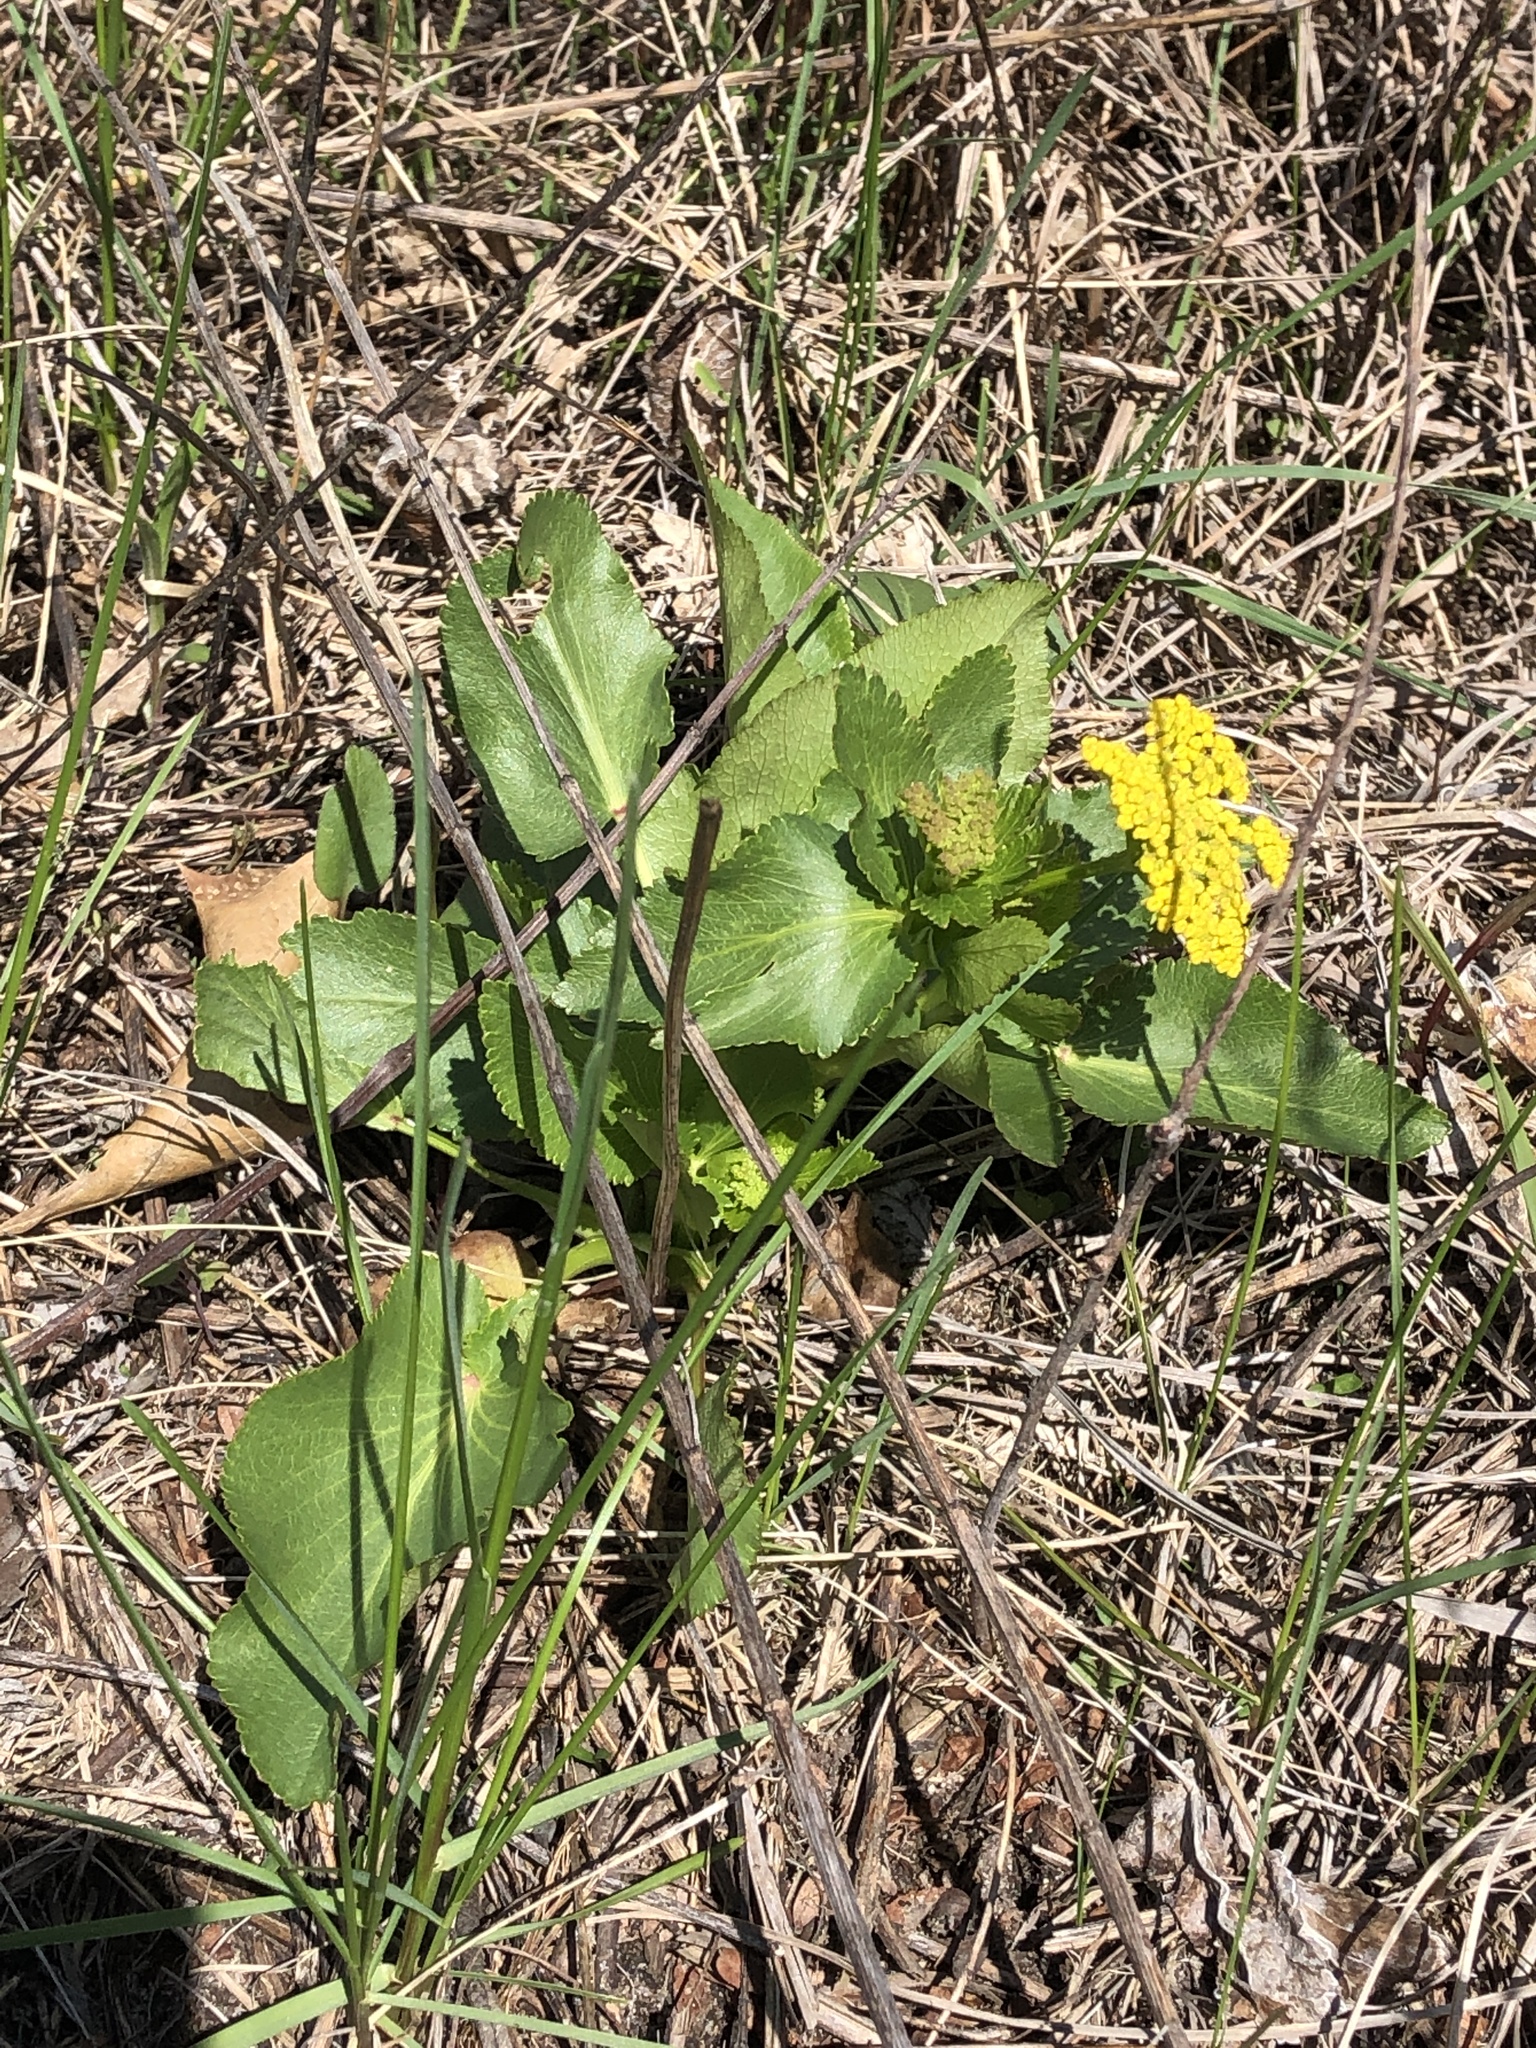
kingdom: Plantae
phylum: Tracheophyta
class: Magnoliopsida
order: Apiales
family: Apiaceae
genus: Zizia
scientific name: Zizia aptera
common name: Heart-leaved alexanders
